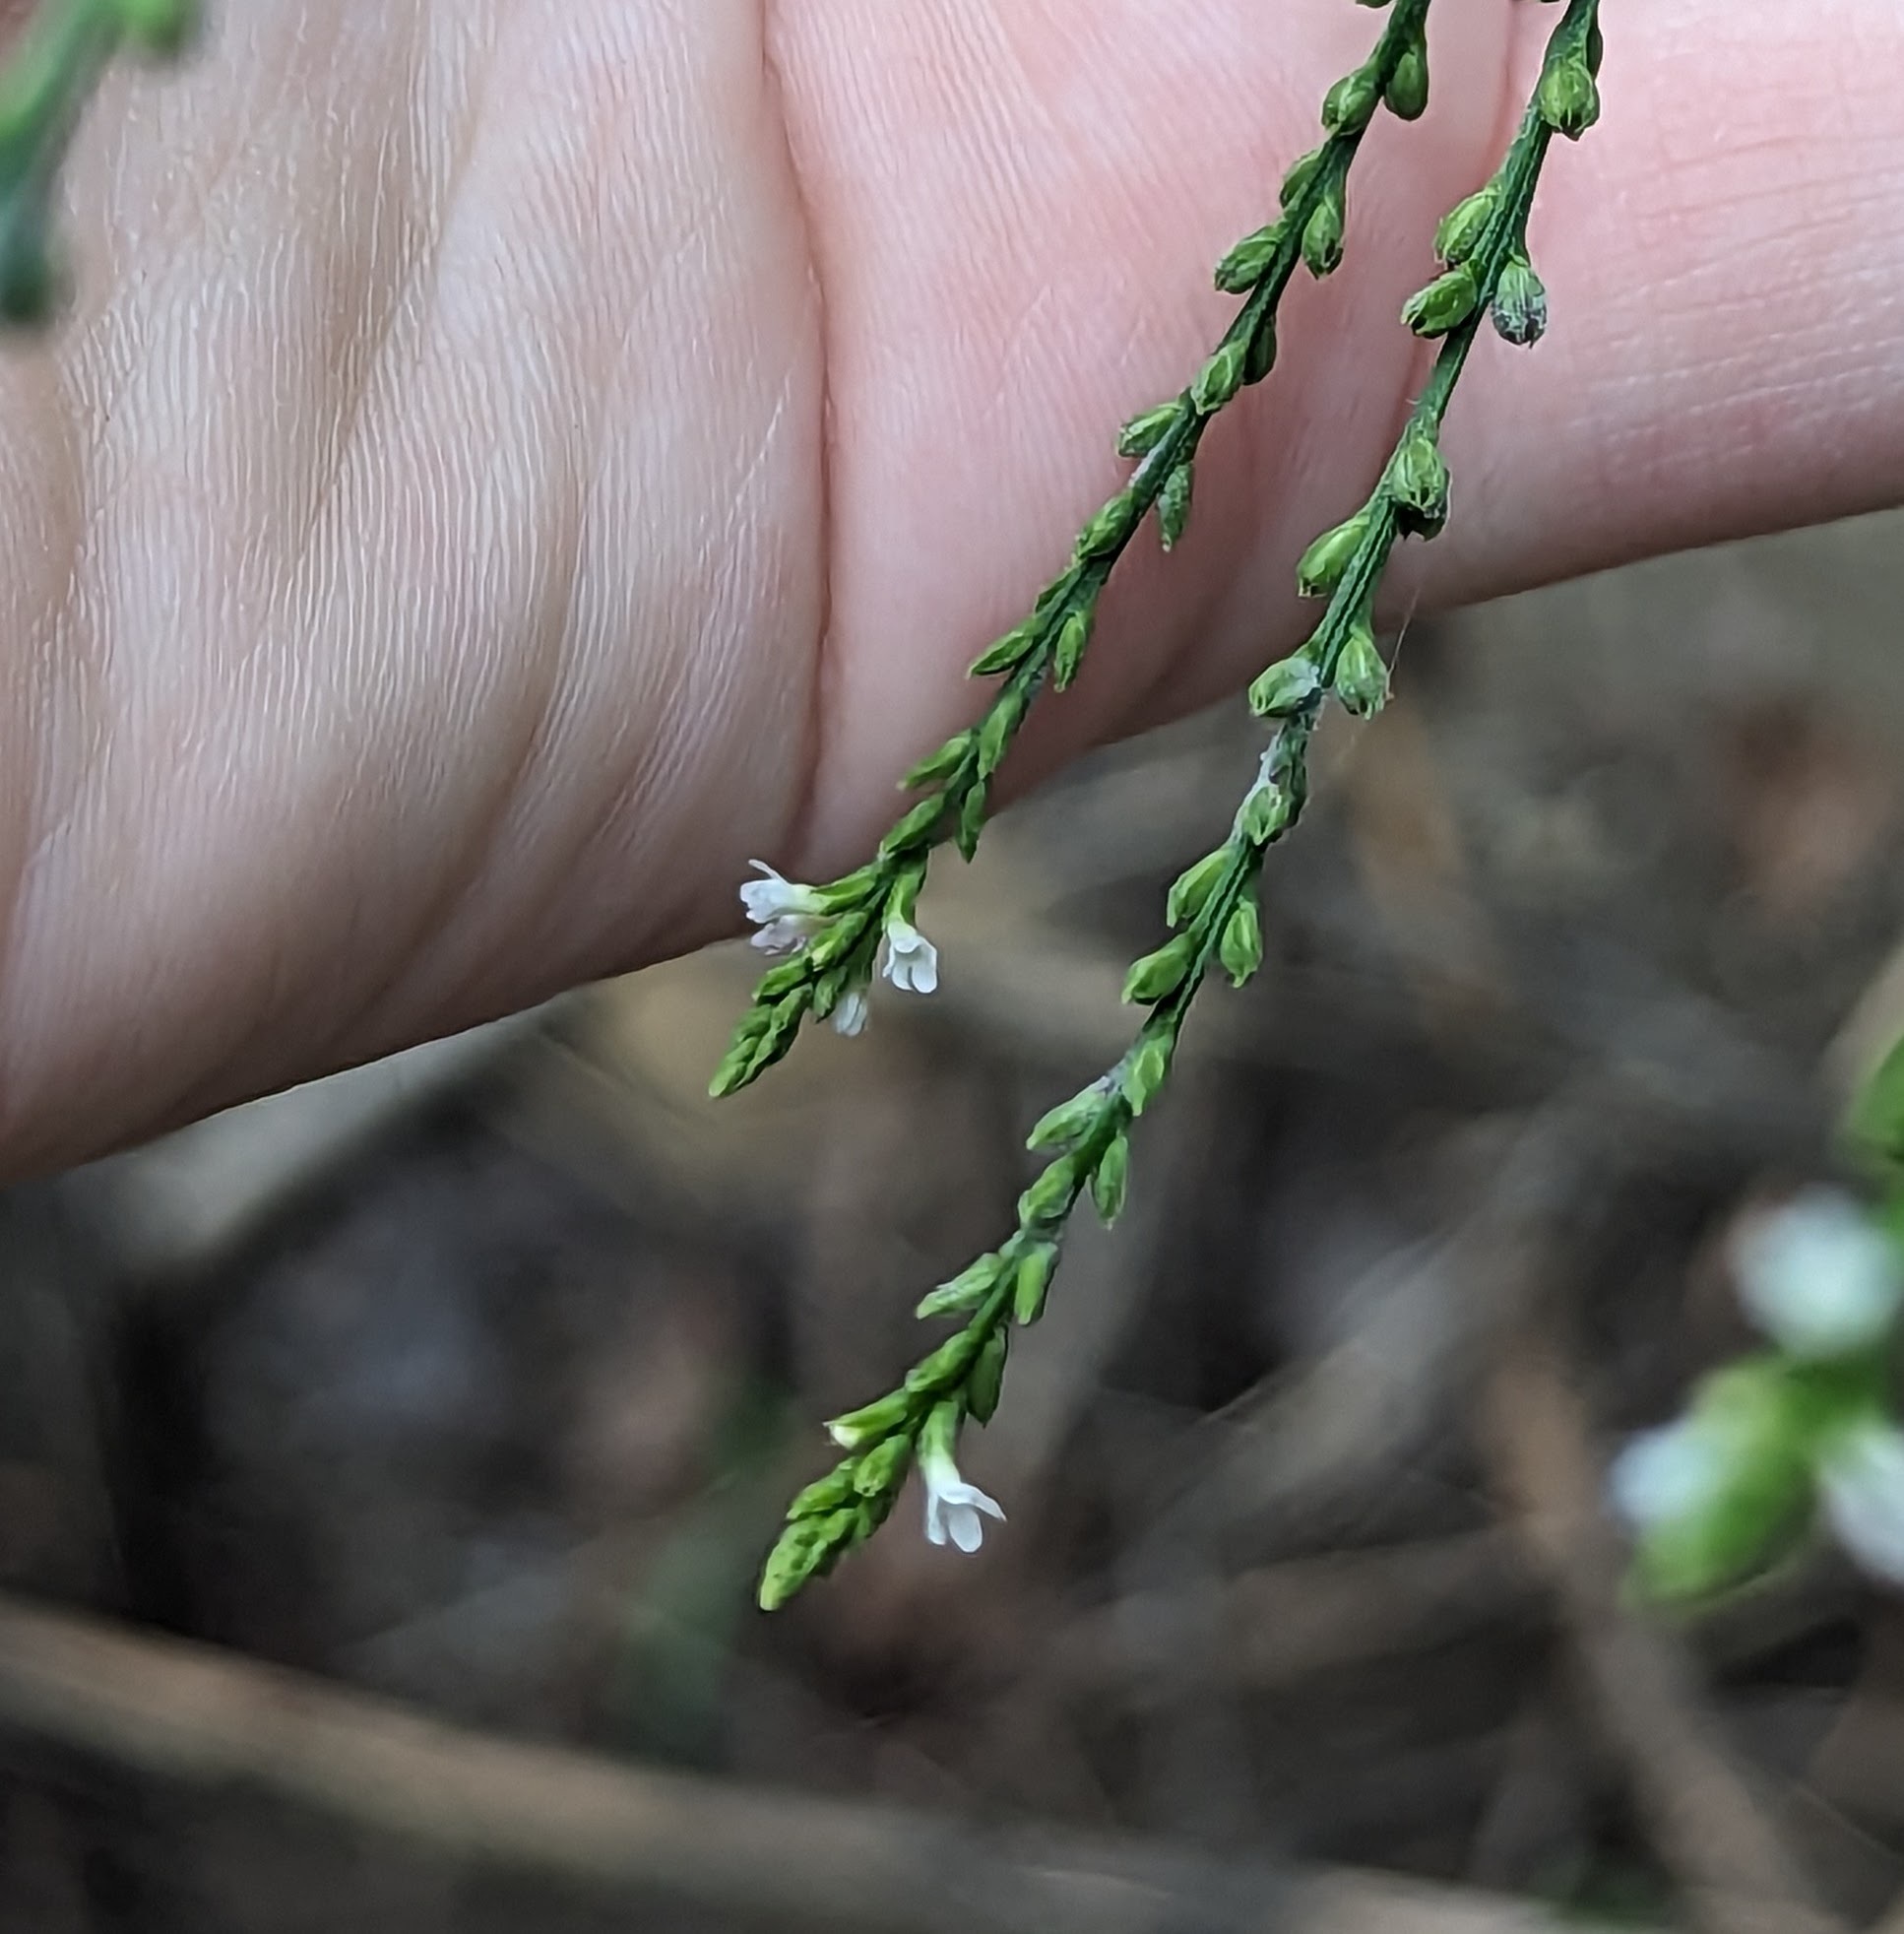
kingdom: Plantae
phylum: Tracheophyta
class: Magnoliopsida
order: Lamiales
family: Verbenaceae
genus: Verbena
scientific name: Verbena urticifolia
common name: Nettle-leaved vervain
